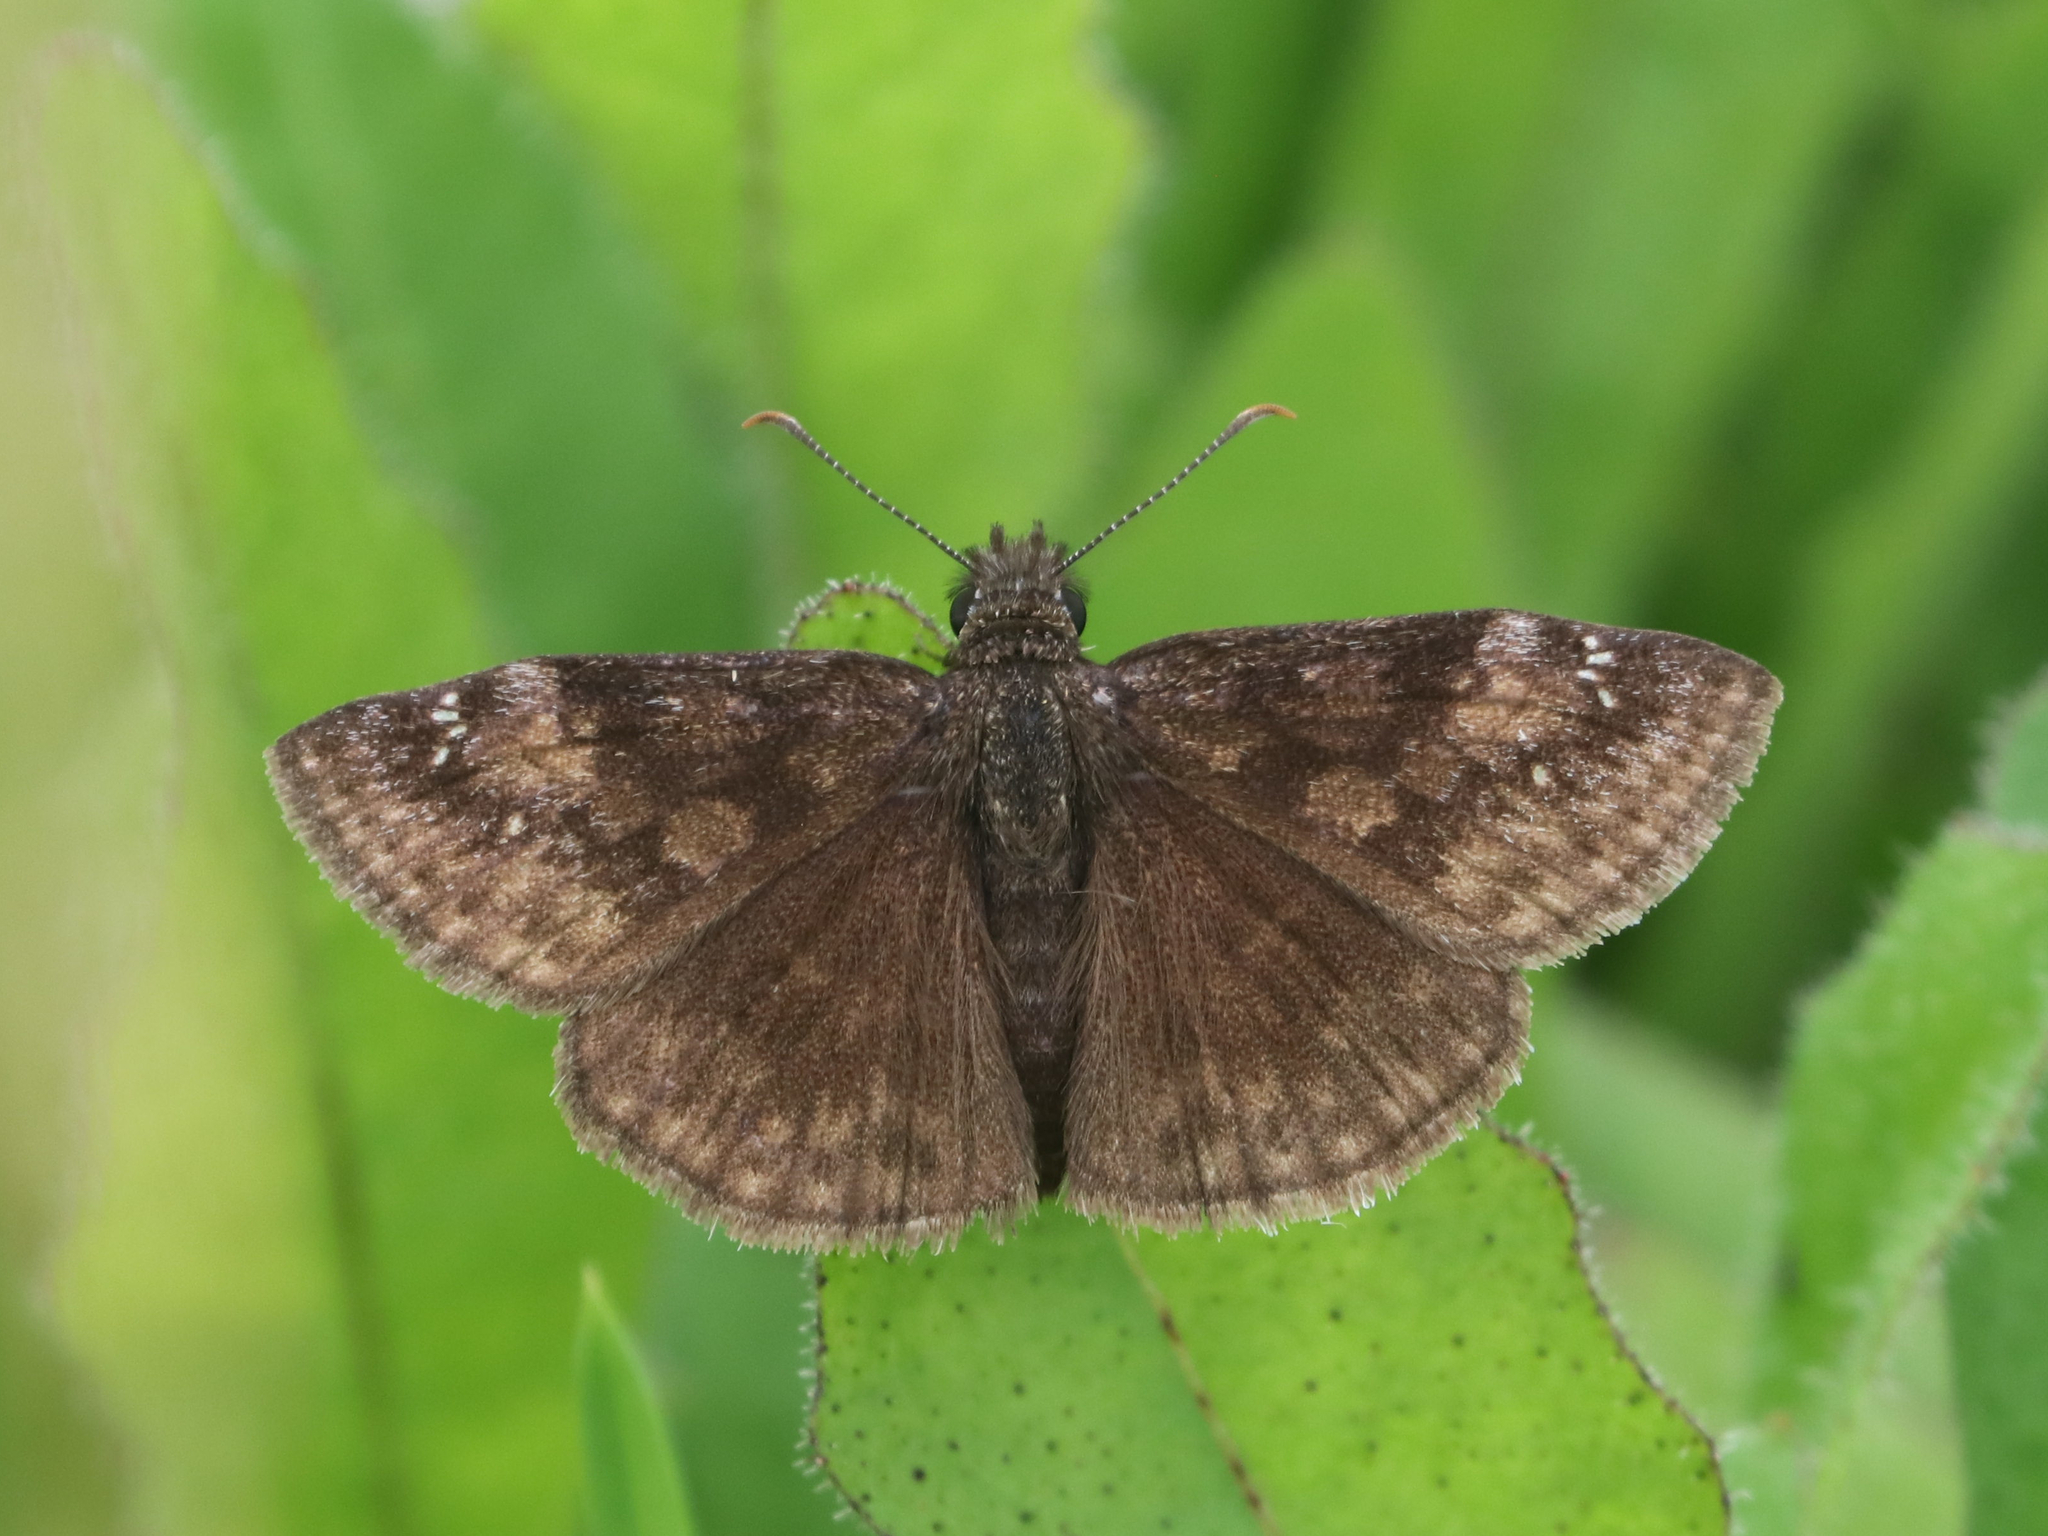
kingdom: Animalia
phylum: Arthropoda
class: Insecta
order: Lepidoptera
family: Hesperiidae
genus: Erynnis
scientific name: Erynnis baptisiae
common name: Wild indigo duskywing
